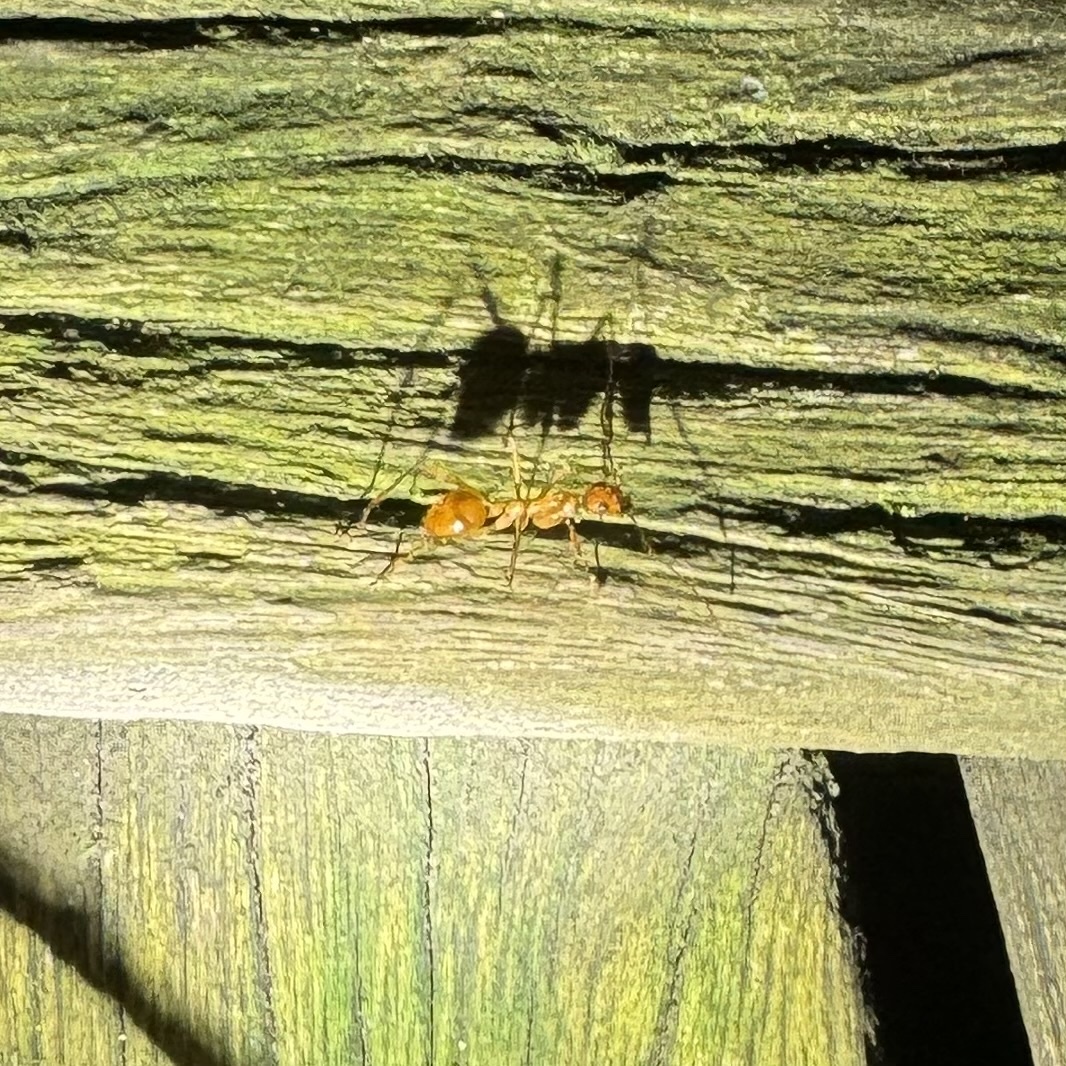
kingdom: Animalia
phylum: Arthropoda
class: Insecta
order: Hymenoptera
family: Formicidae
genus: Notostigma
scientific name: Notostigma foreli
